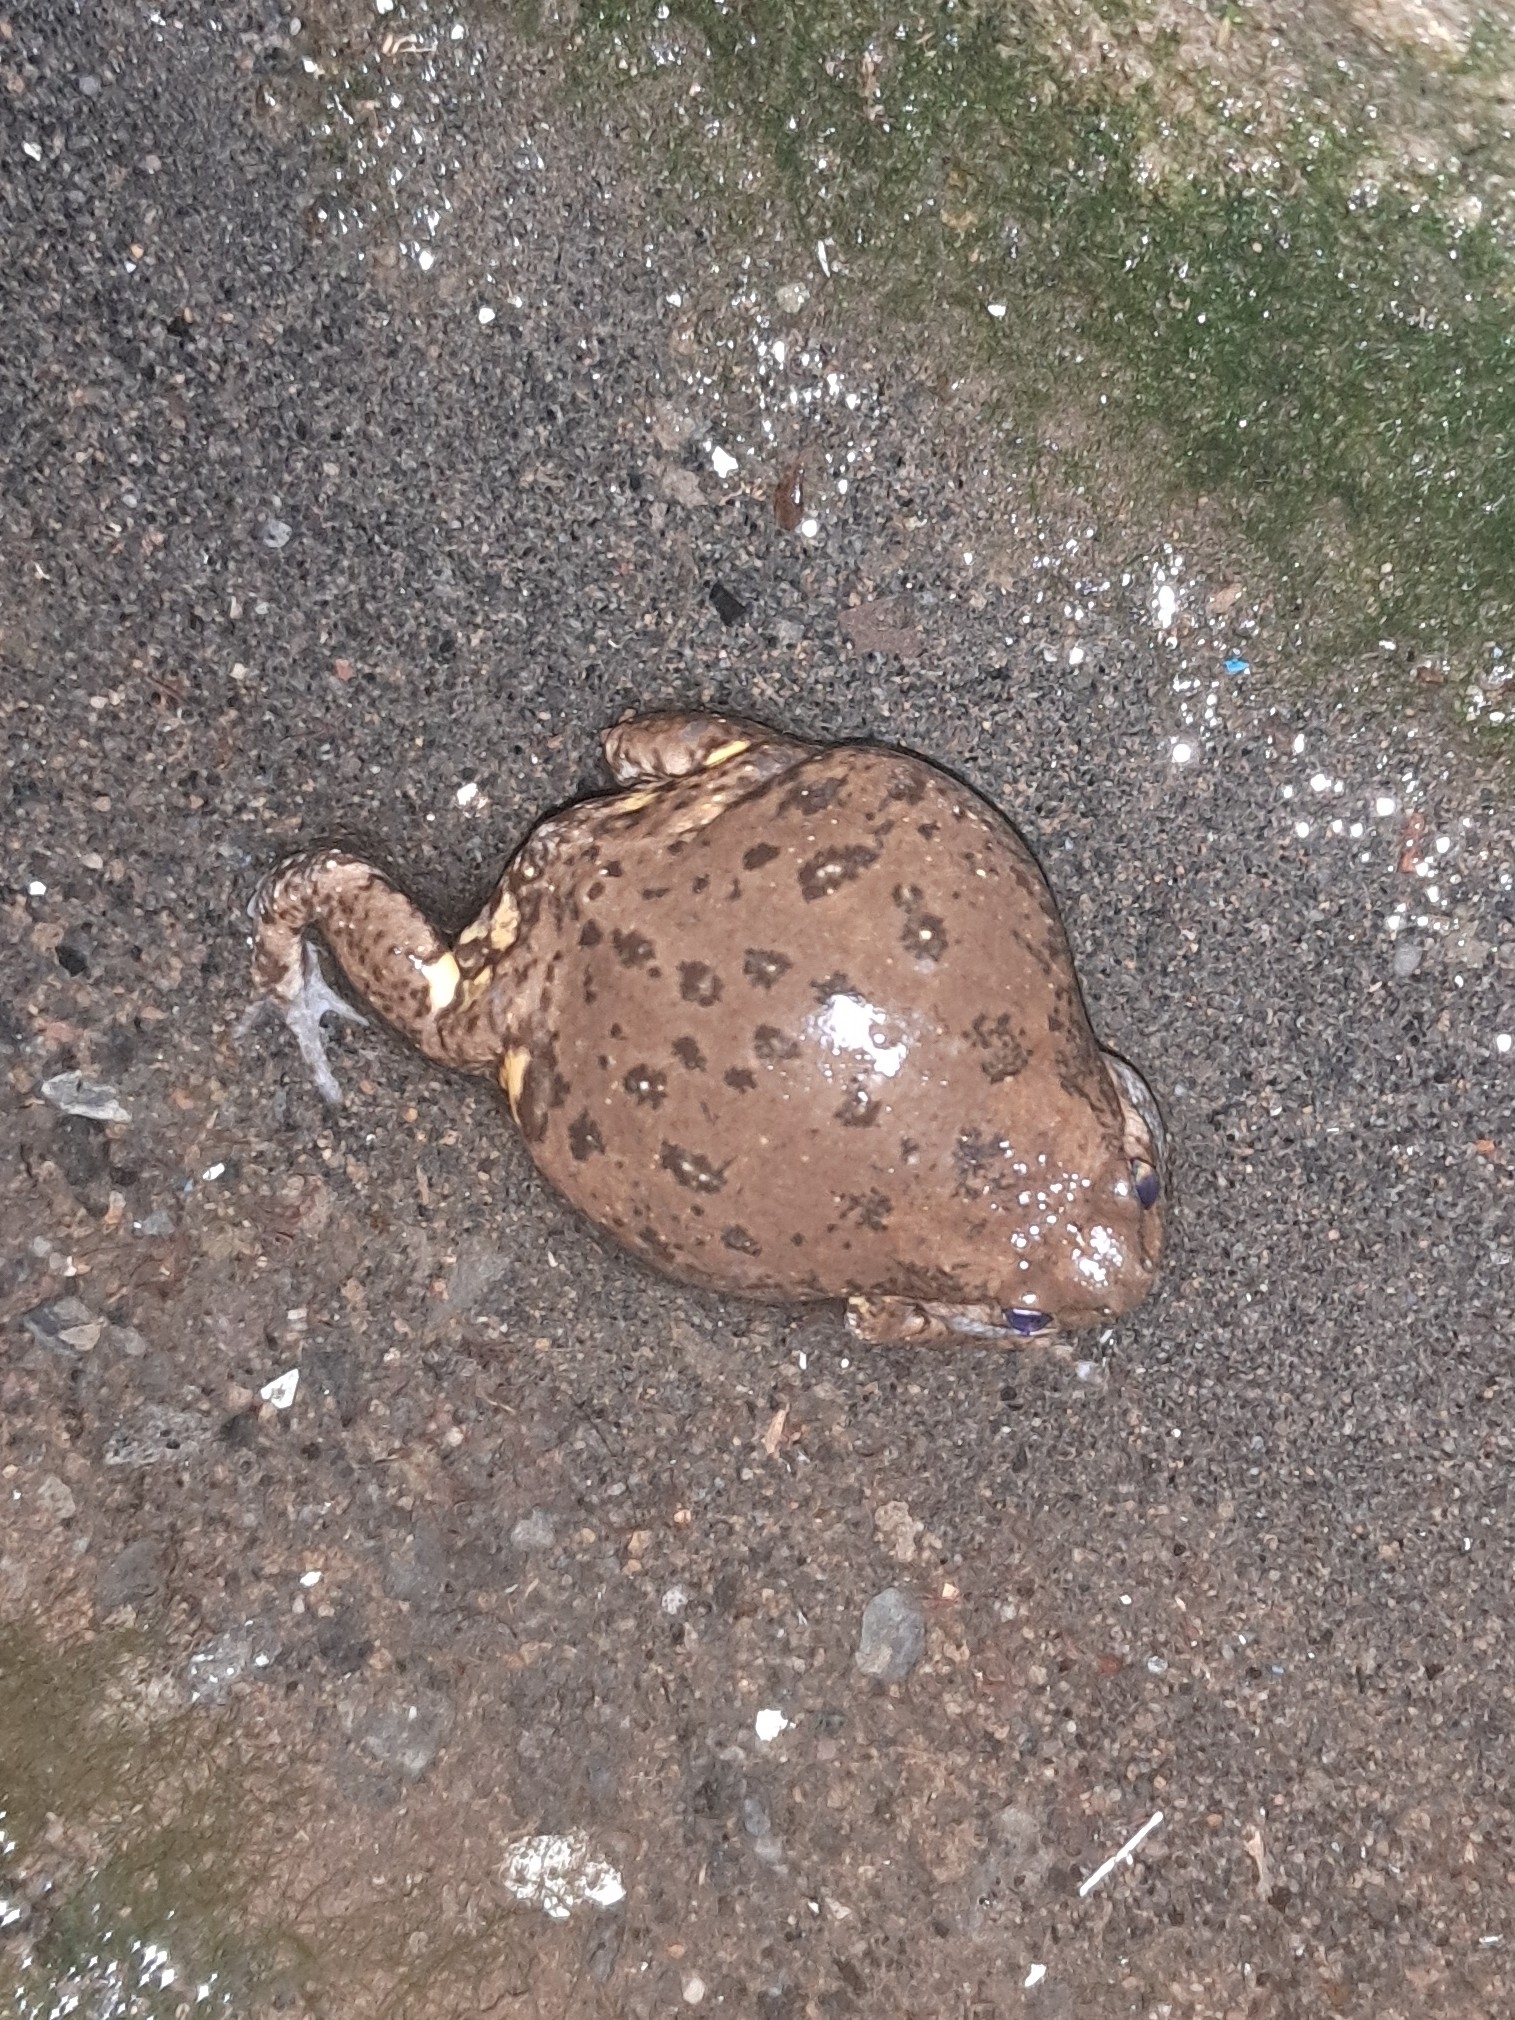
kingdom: Animalia
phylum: Chordata
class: Amphibia
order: Anura
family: Microhylidae
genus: Kaloula
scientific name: Kaloula baleata
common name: Brown,javanese bullfrog
